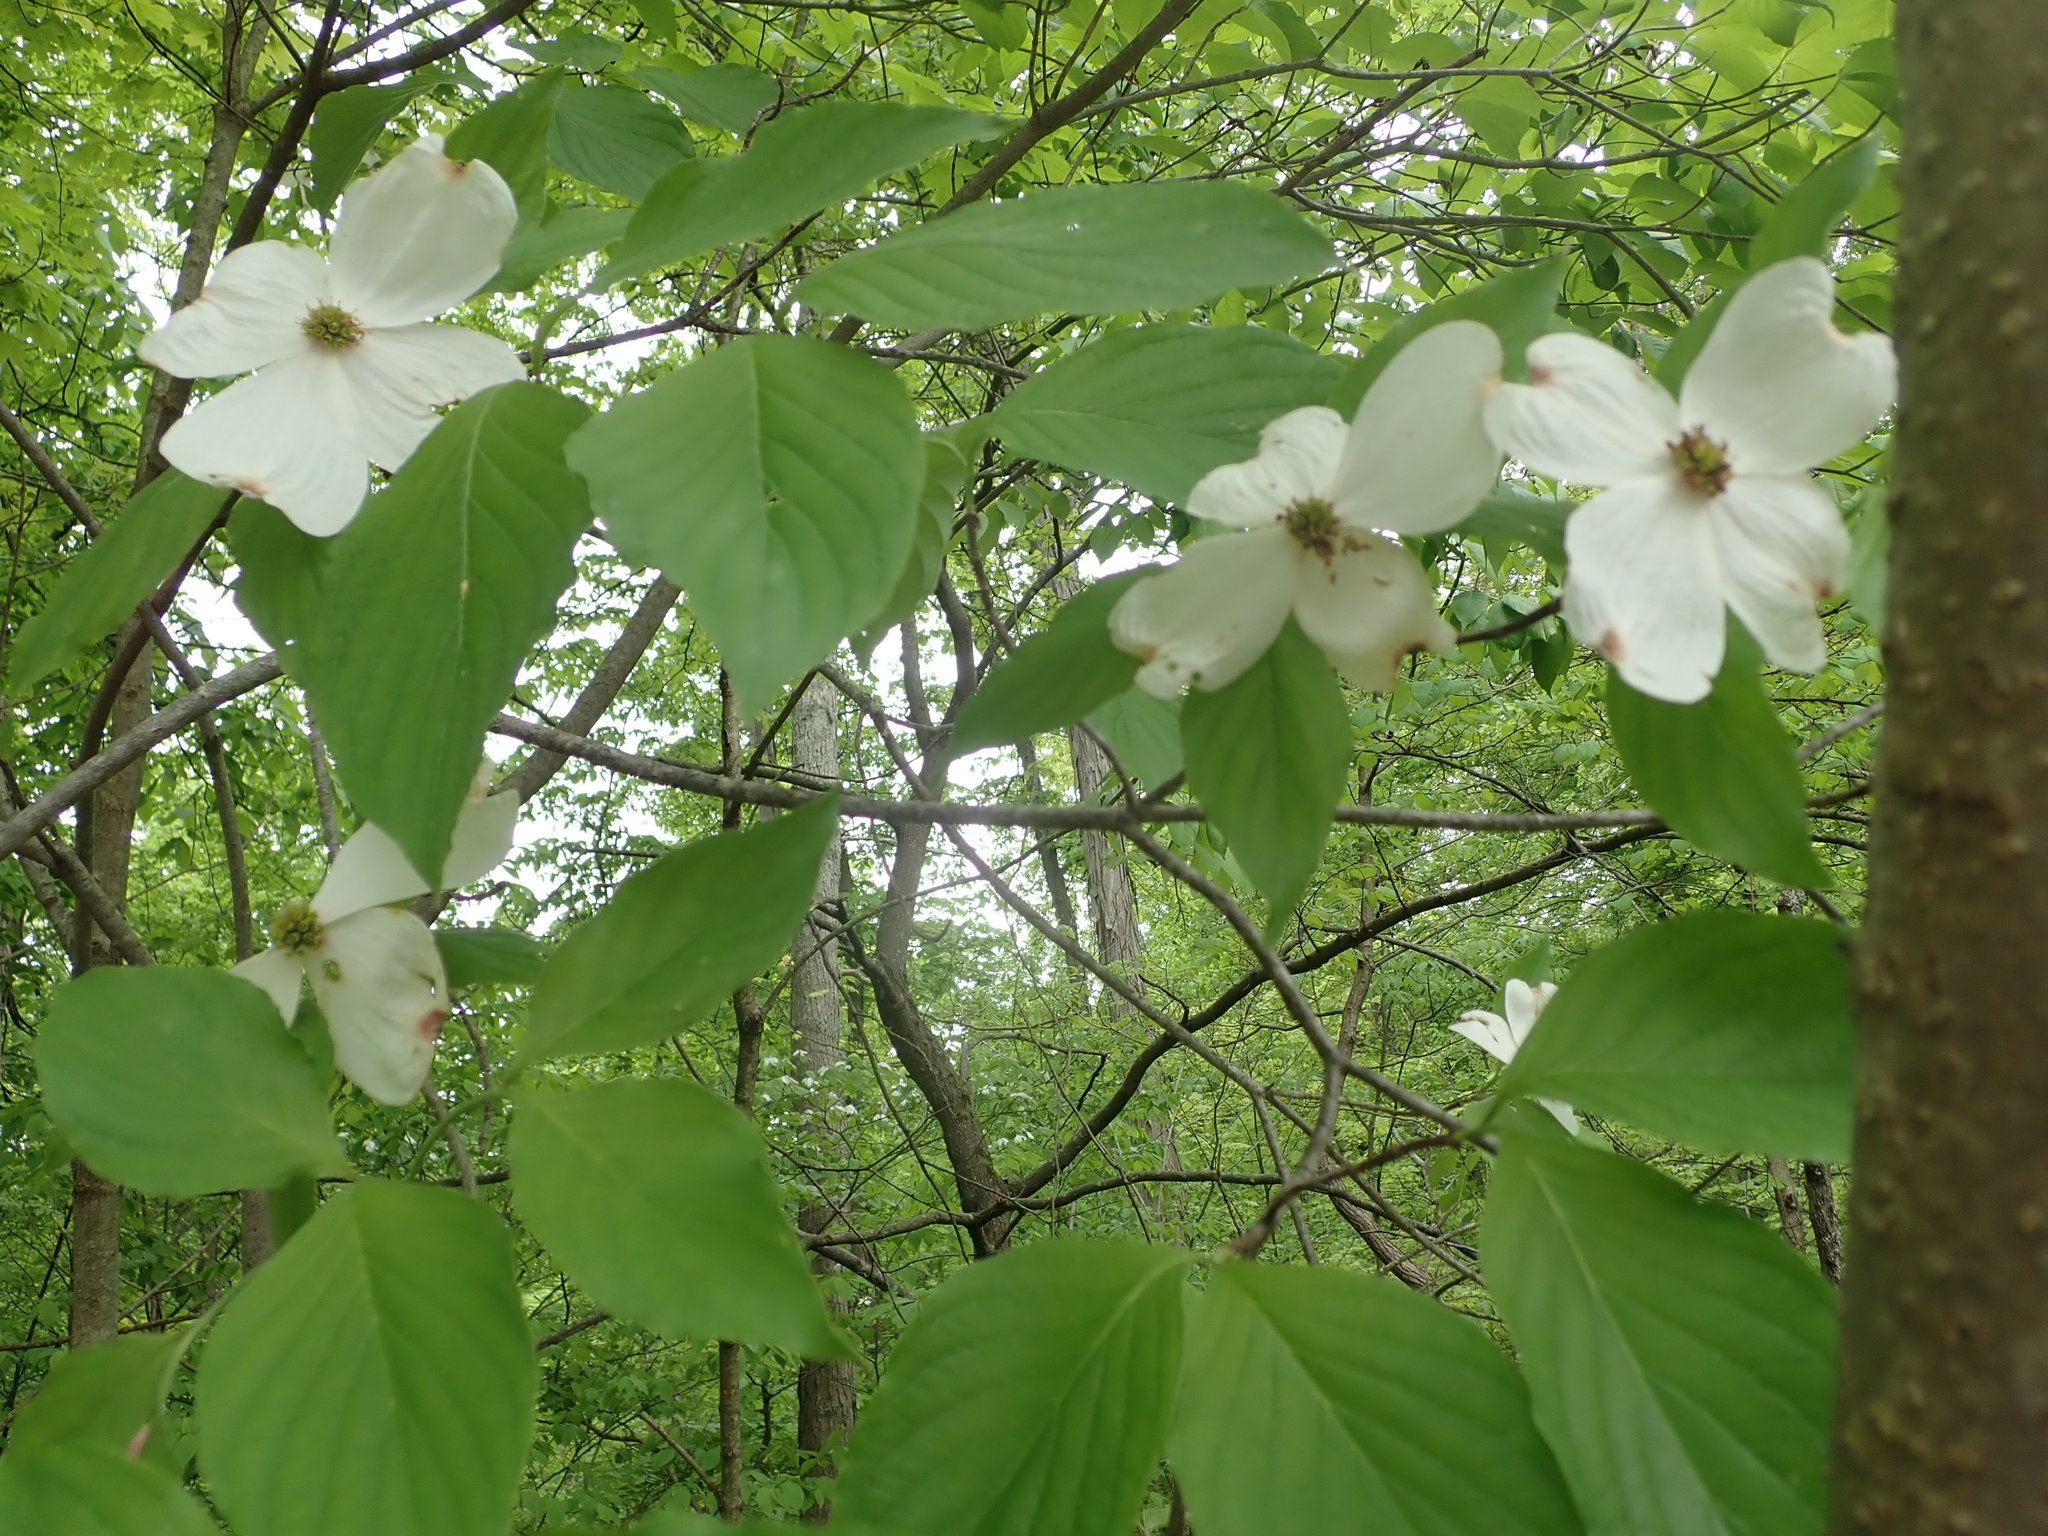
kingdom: Plantae
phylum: Tracheophyta
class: Magnoliopsida
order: Cornales
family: Cornaceae
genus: Cornus
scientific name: Cornus florida
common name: Flowering dogwood
